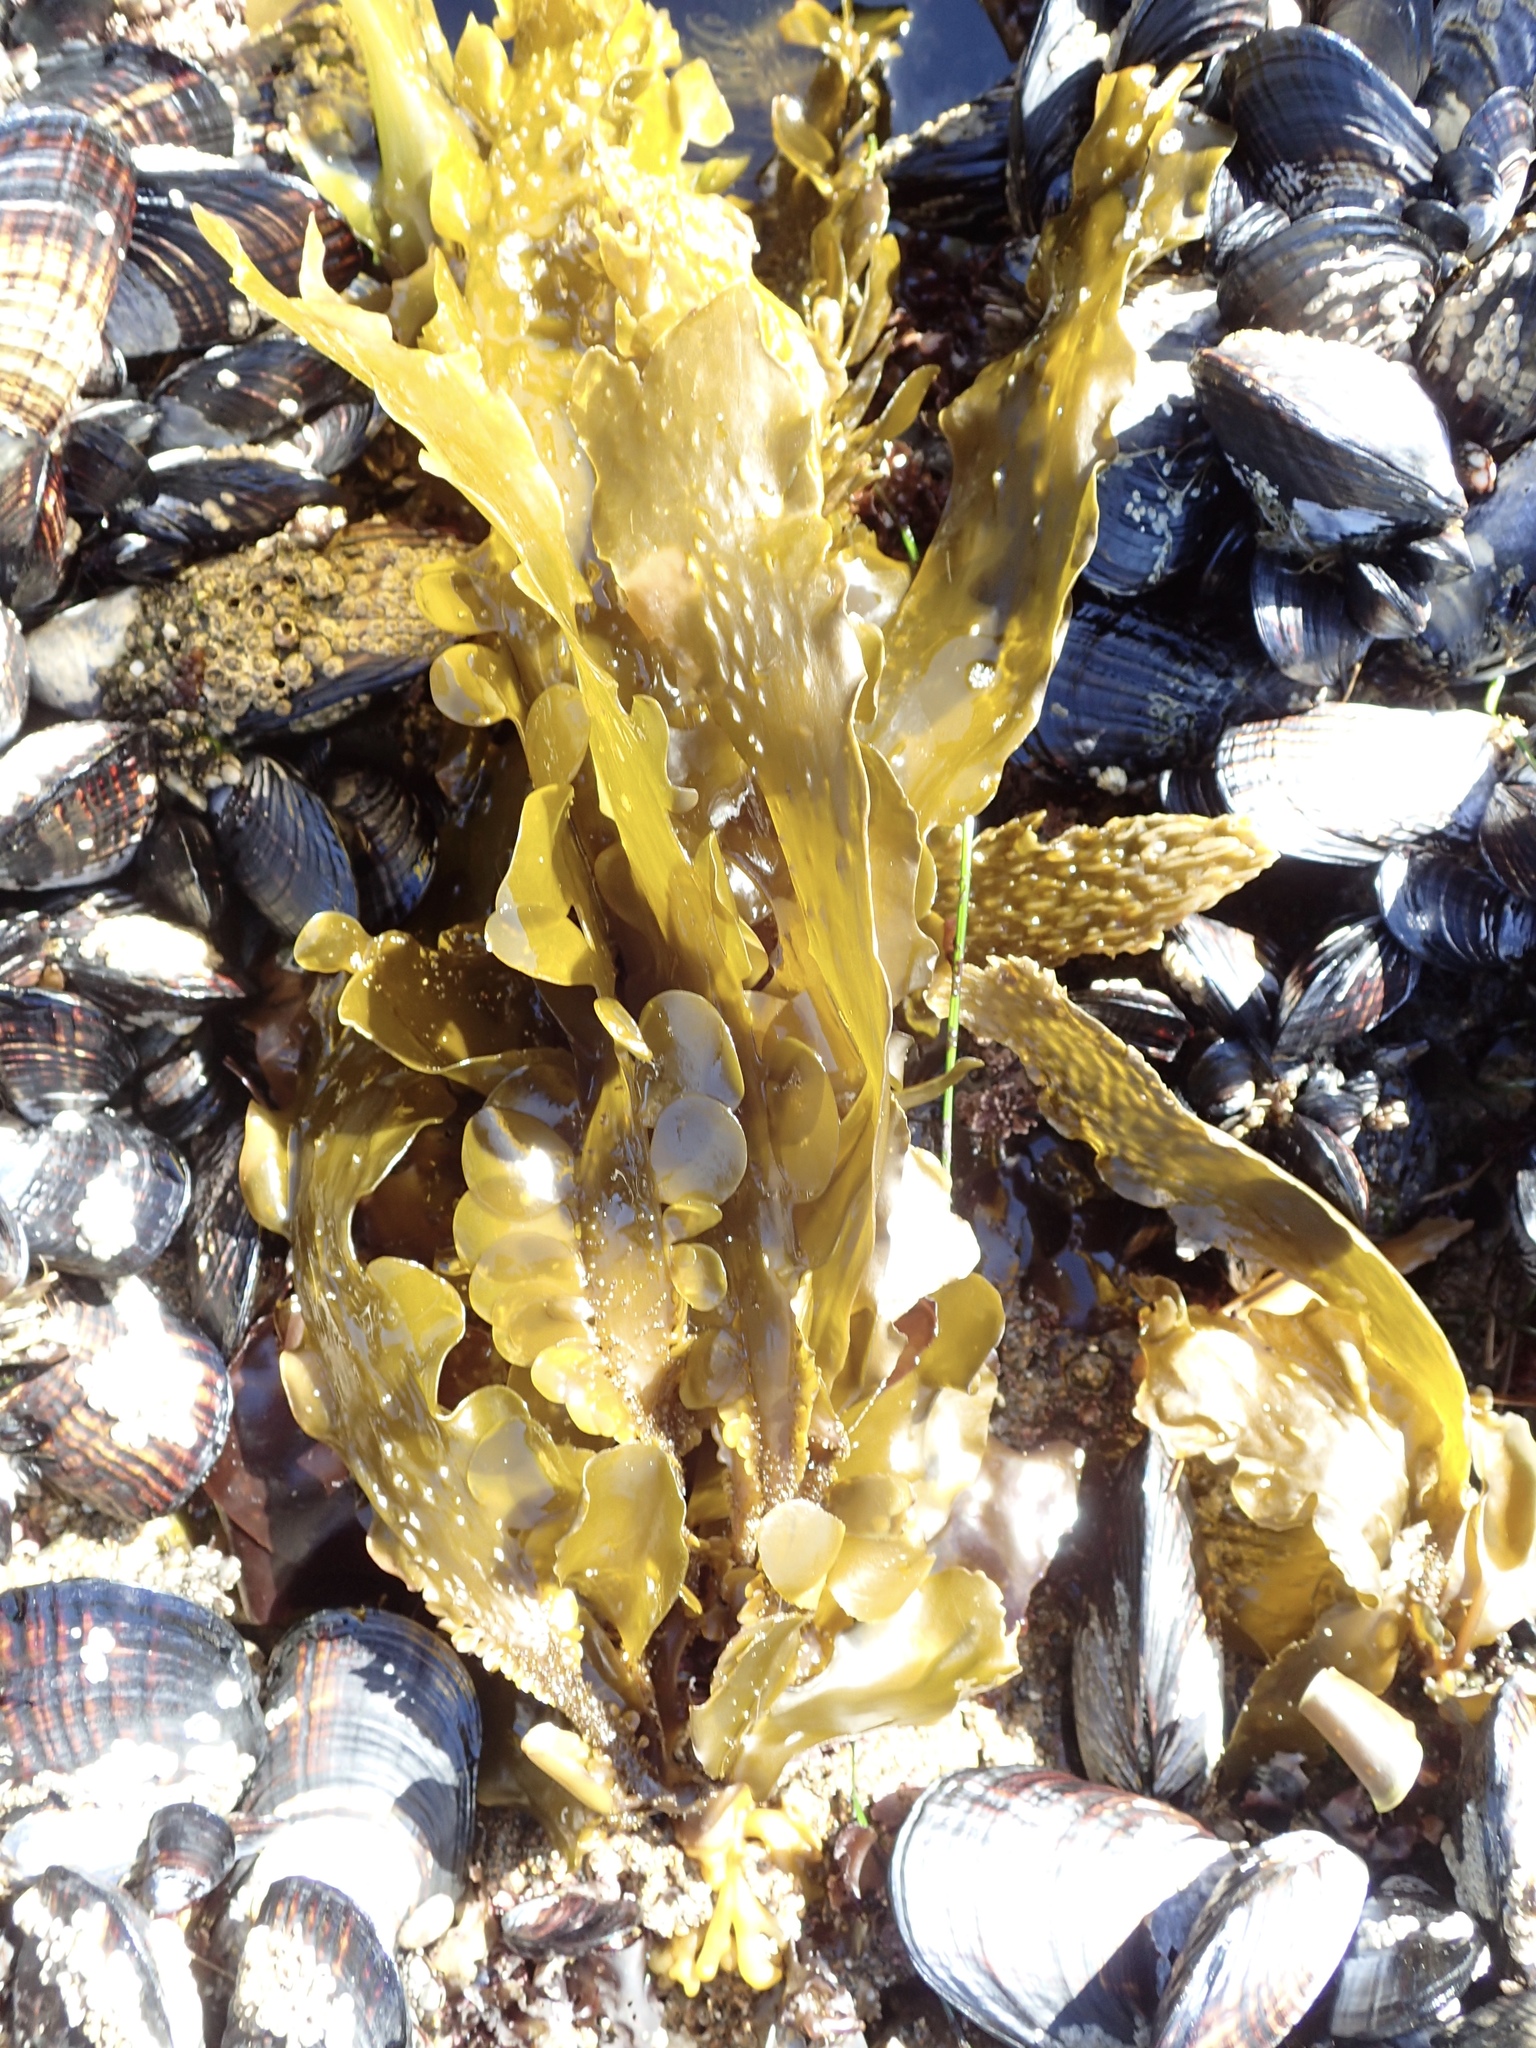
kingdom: Chromista
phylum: Ochrophyta
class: Phaeophyceae
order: Laminariales
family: Lessoniaceae
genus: Egregia
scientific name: Egregia menziesii
